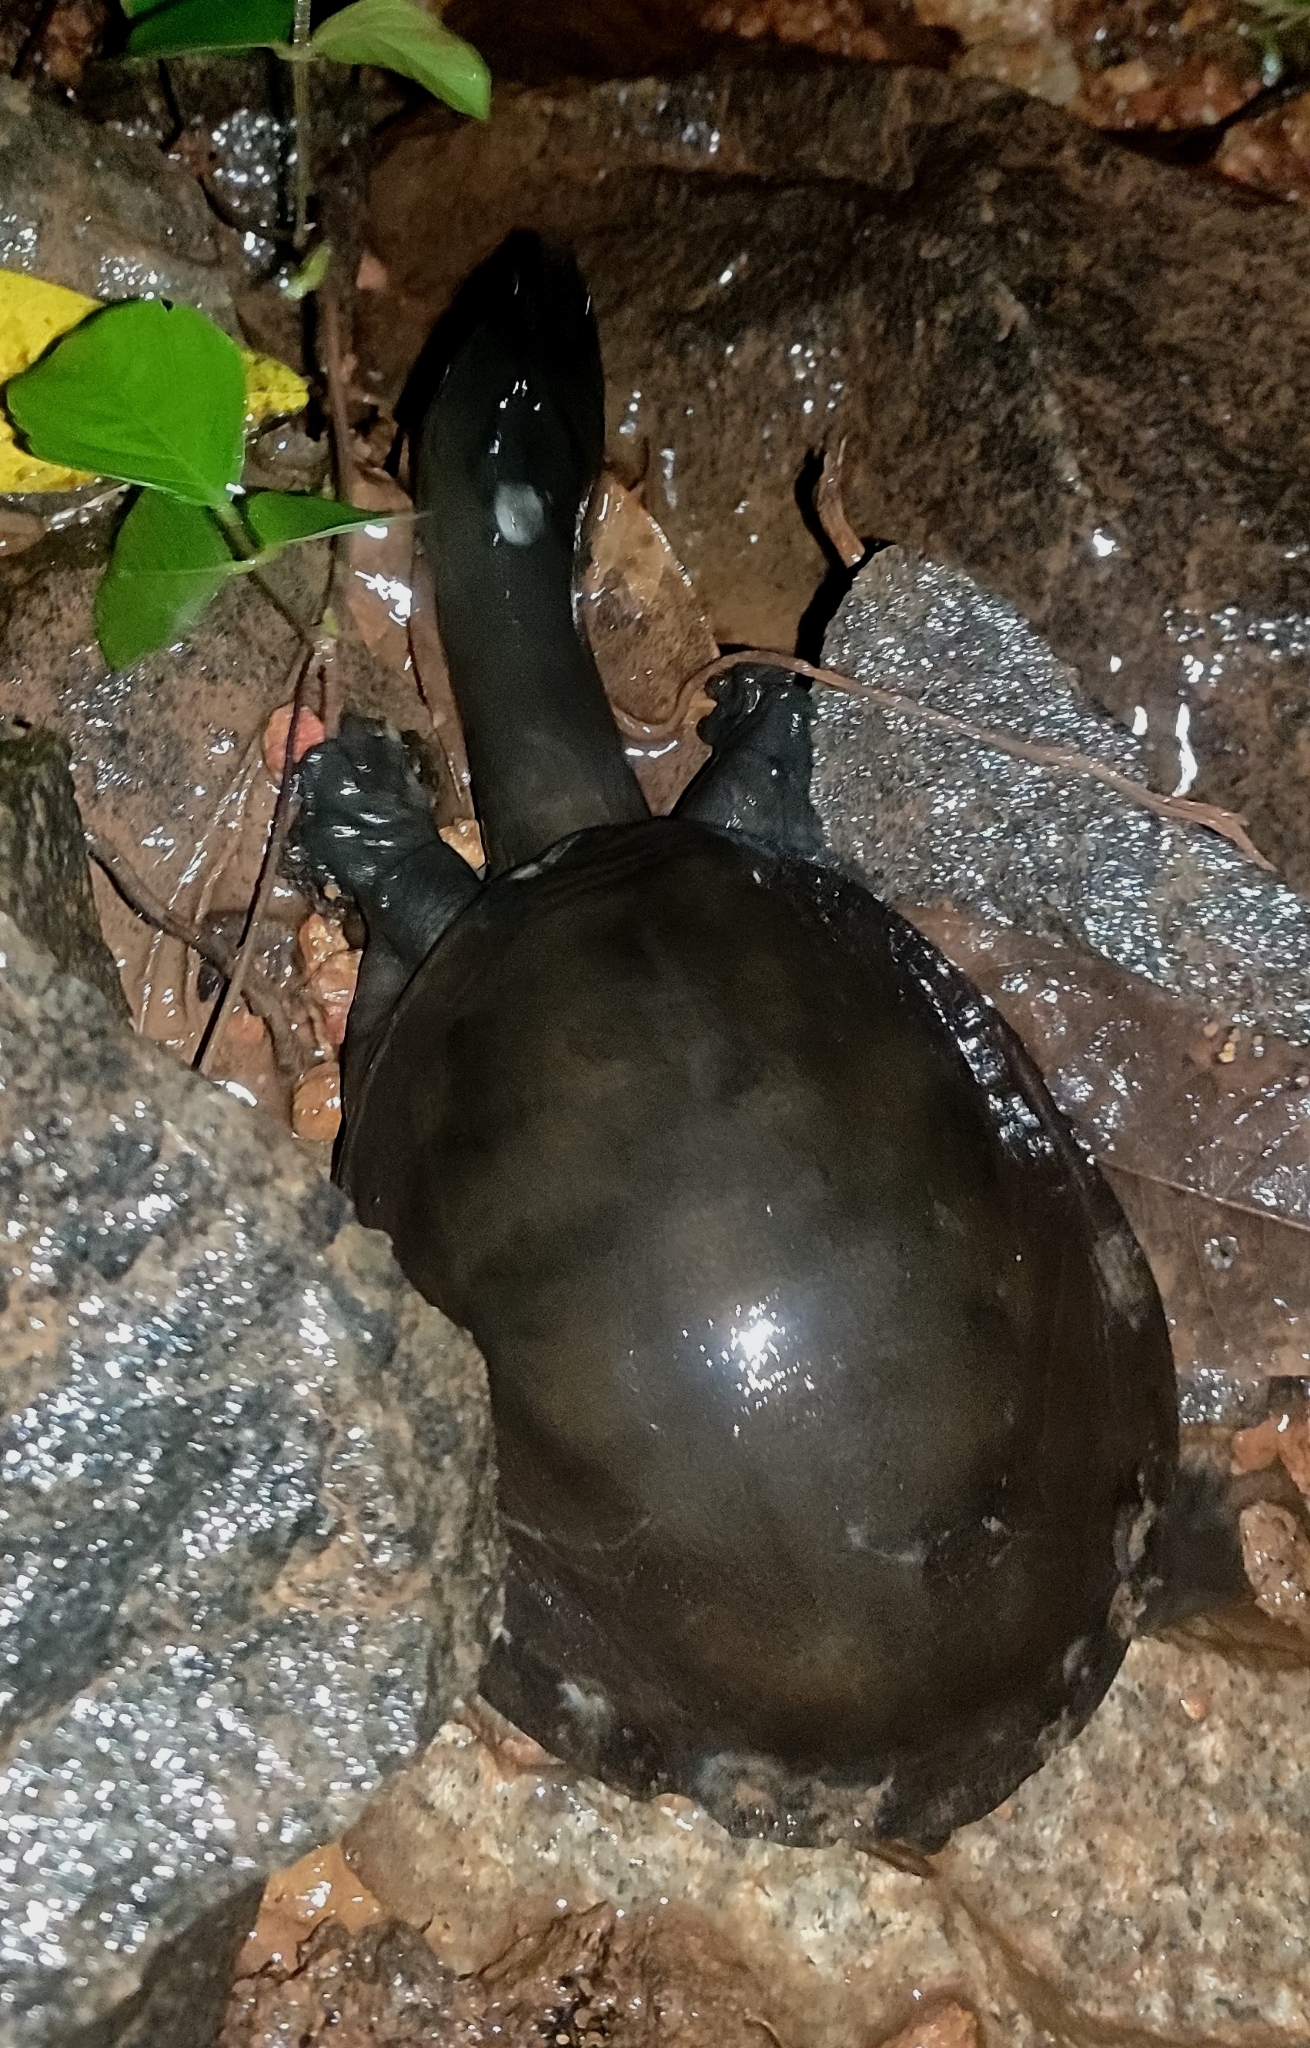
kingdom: Animalia
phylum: Chordata
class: Testudines
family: Trionychidae
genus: Lissemys
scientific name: Lissemys punctata
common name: Indian flap-shelled turtle
